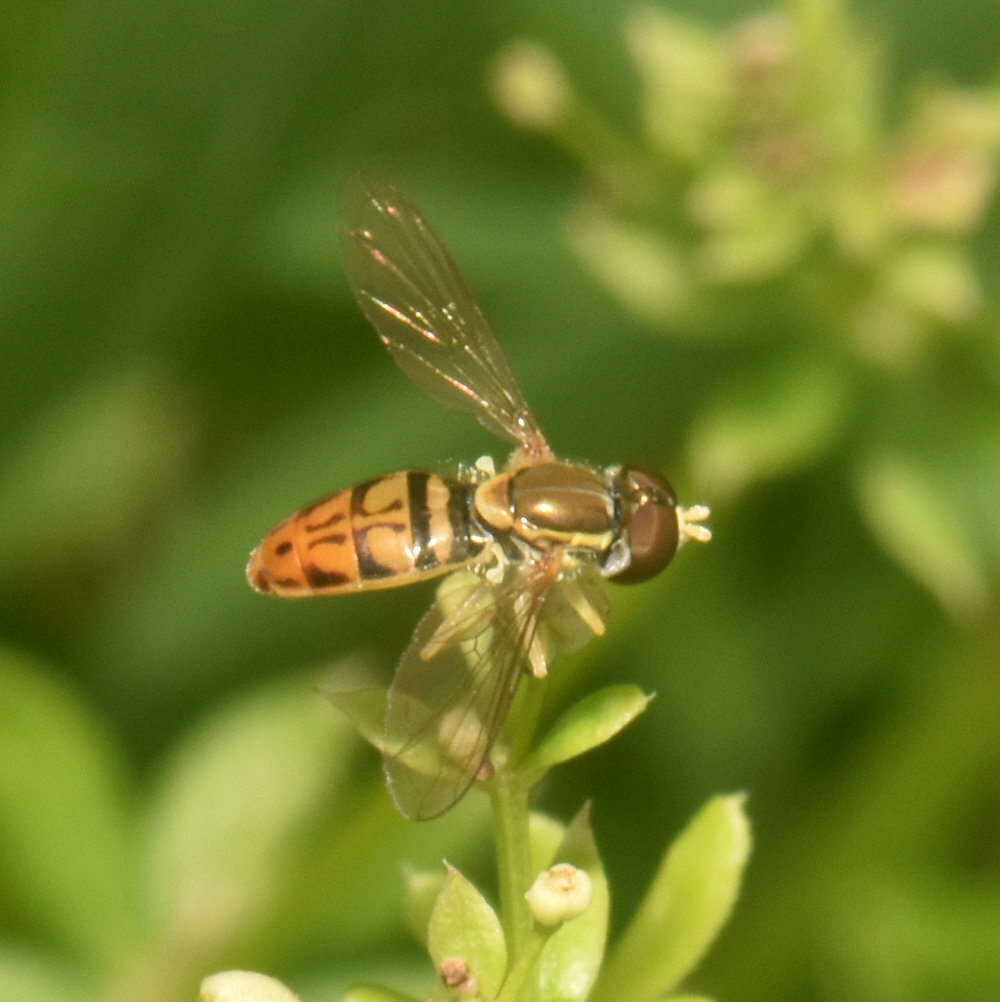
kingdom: Animalia
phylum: Arthropoda
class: Insecta
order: Diptera
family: Syrphidae
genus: Toxomerus
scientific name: Toxomerus marginatus
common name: Syrphid fly
